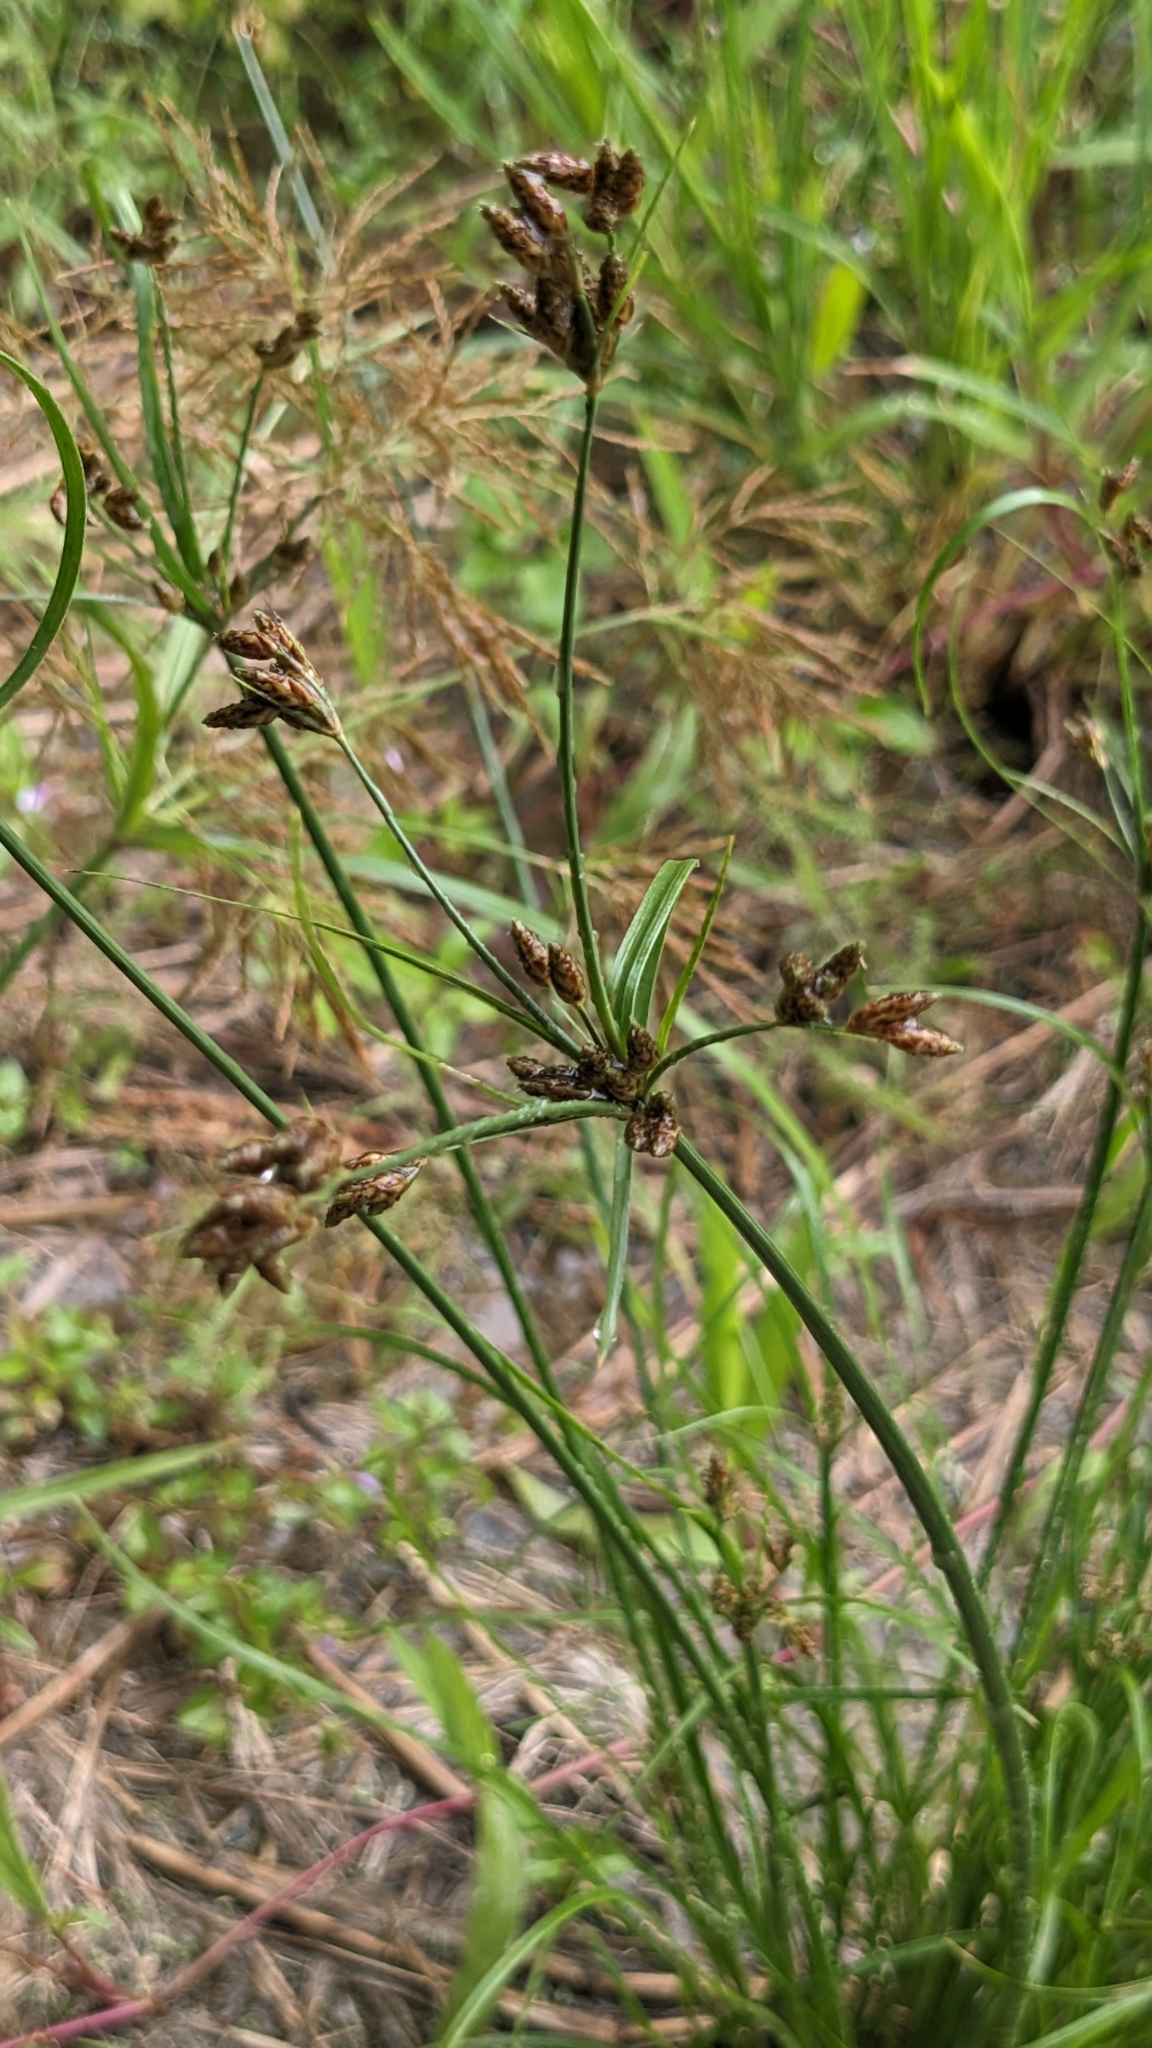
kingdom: Plantae
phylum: Tracheophyta
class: Liliopsida
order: Poales
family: Cyperaceae
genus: Fimbristylis
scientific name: Fimbristylis dichotoma
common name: Forked fimbry
